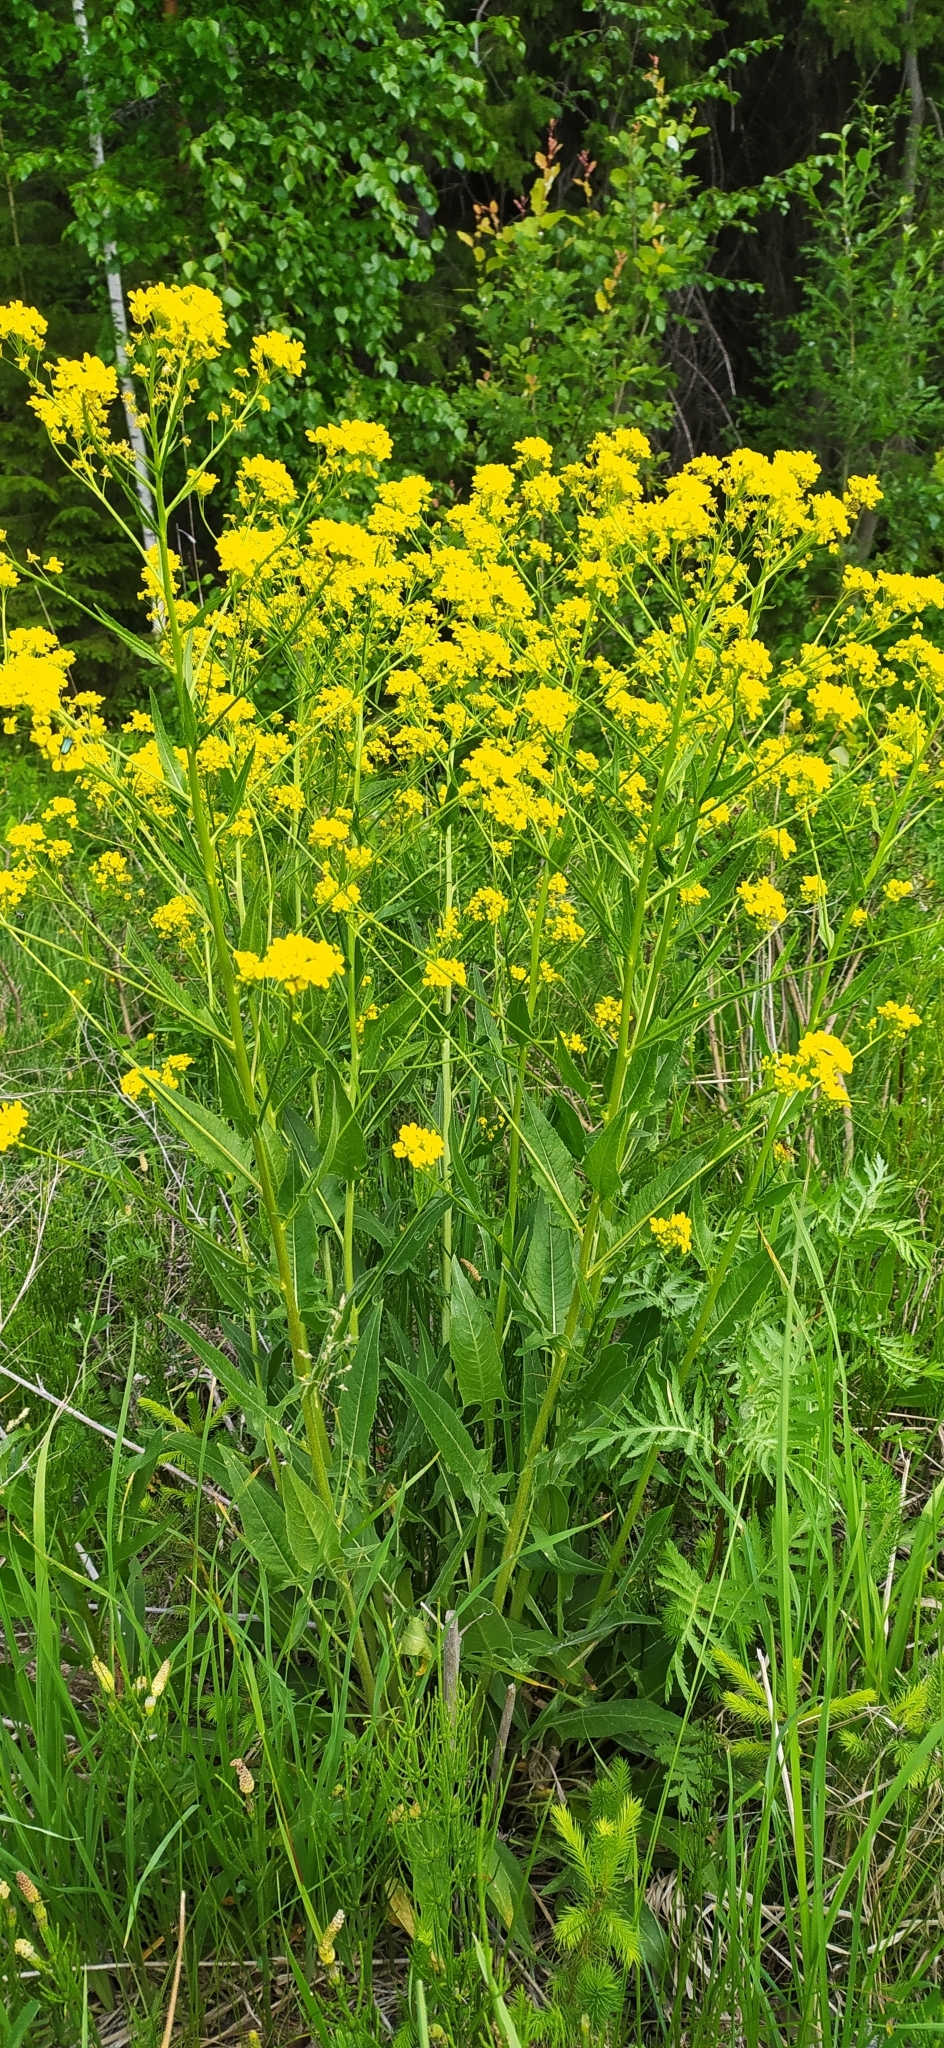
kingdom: Plantae
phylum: Tracheophyta
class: Magnoliopsida
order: Brassicales
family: Brassicaceae
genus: Bunias
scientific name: Bunias orientalis
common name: Warty-cabbage
